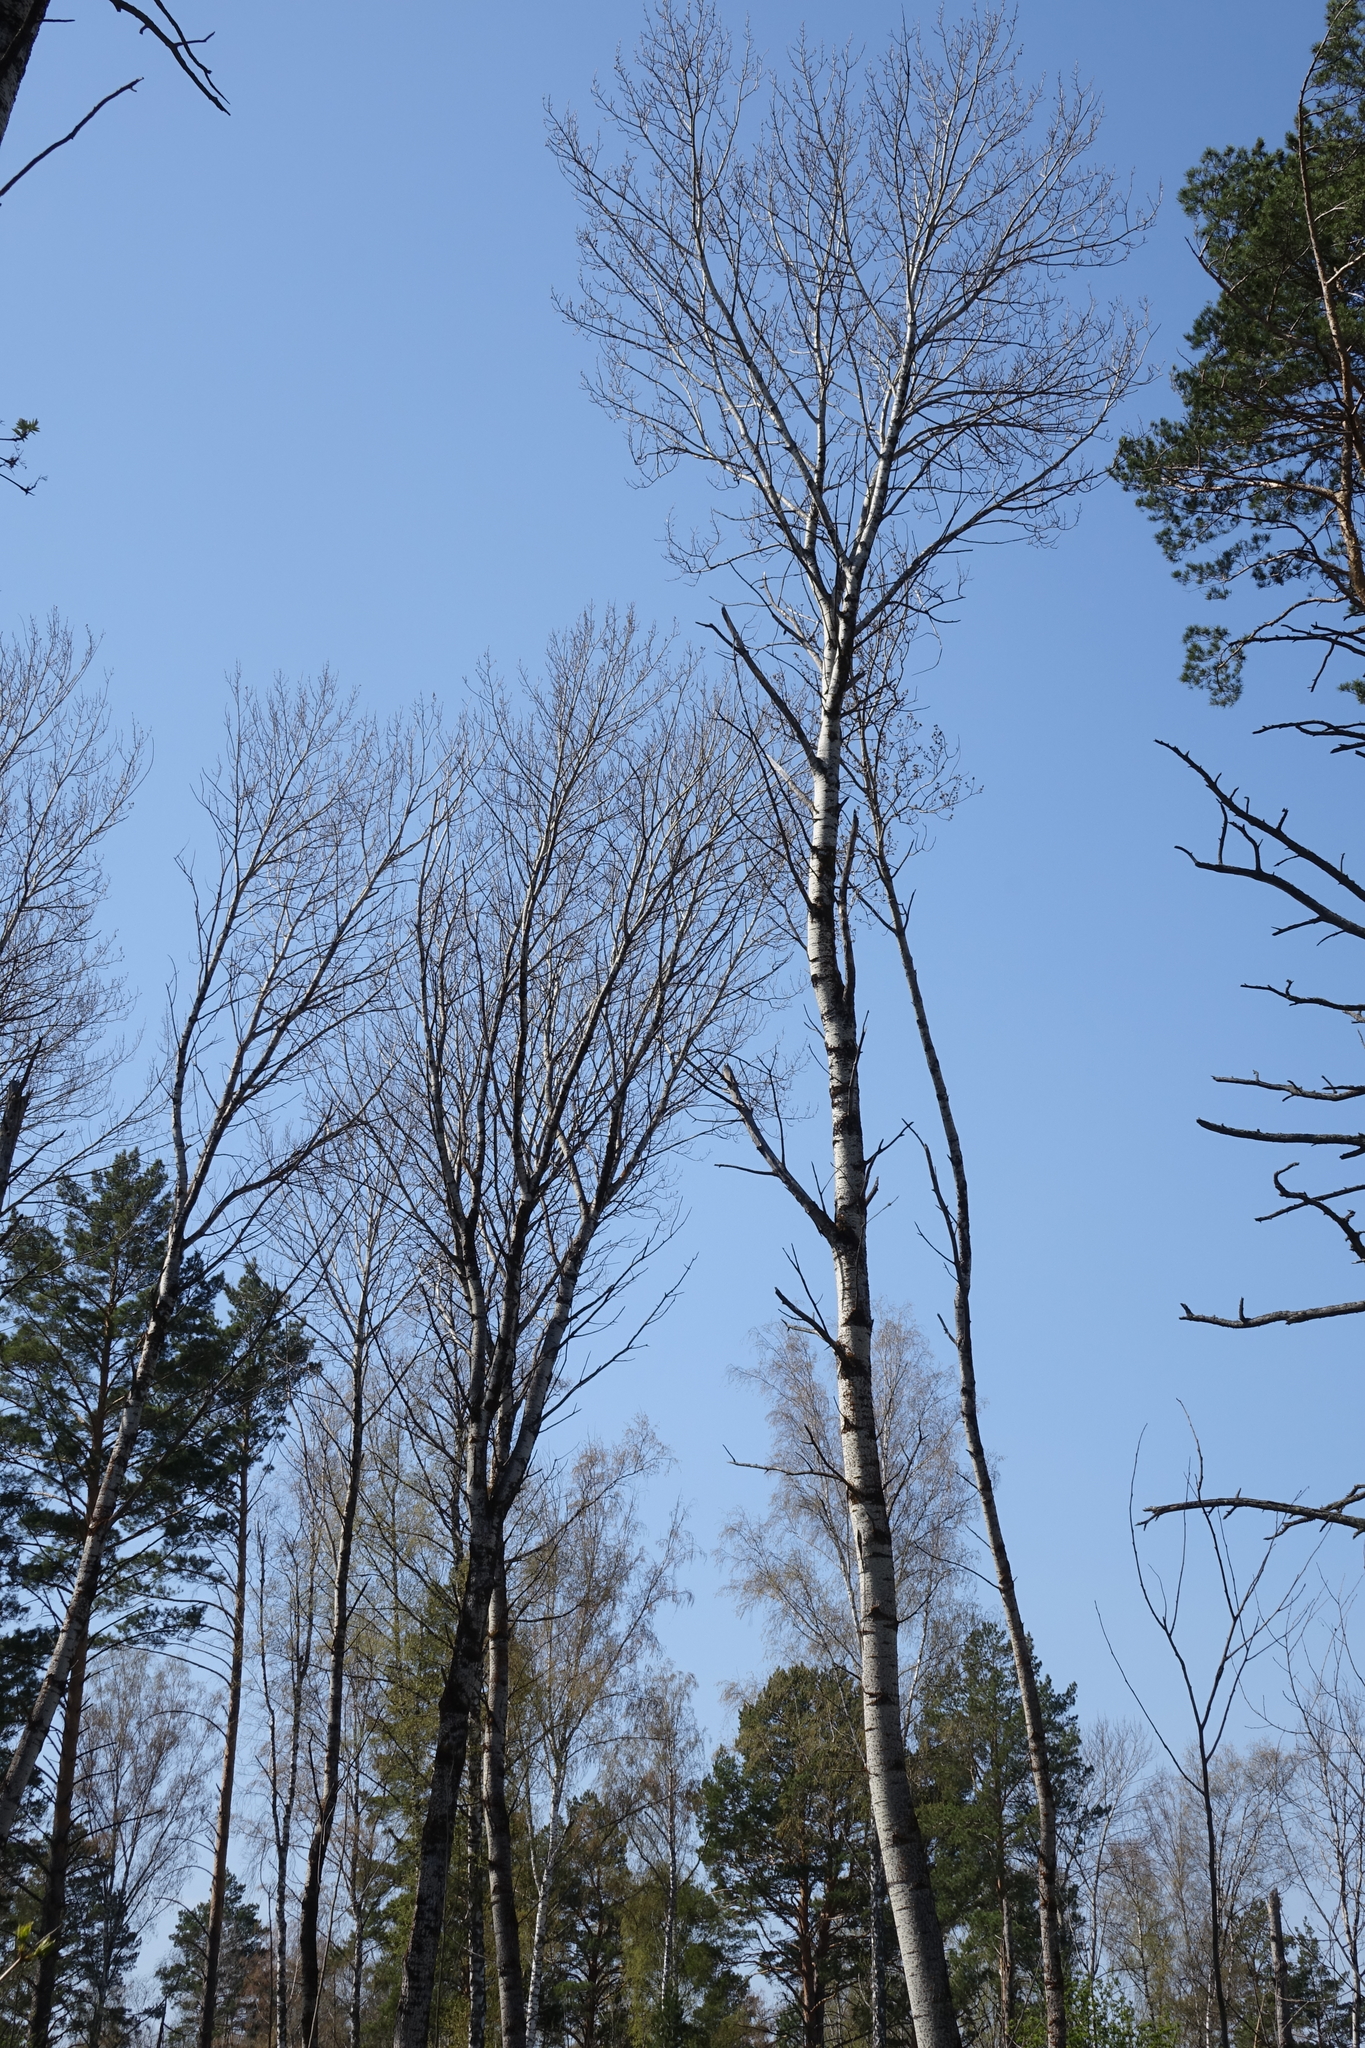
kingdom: Plantae
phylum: Tracheophyta
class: Magnoliopsida
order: Malpighiales
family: Salicaceae
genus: Populus
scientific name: Populus tremula
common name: European aspen
